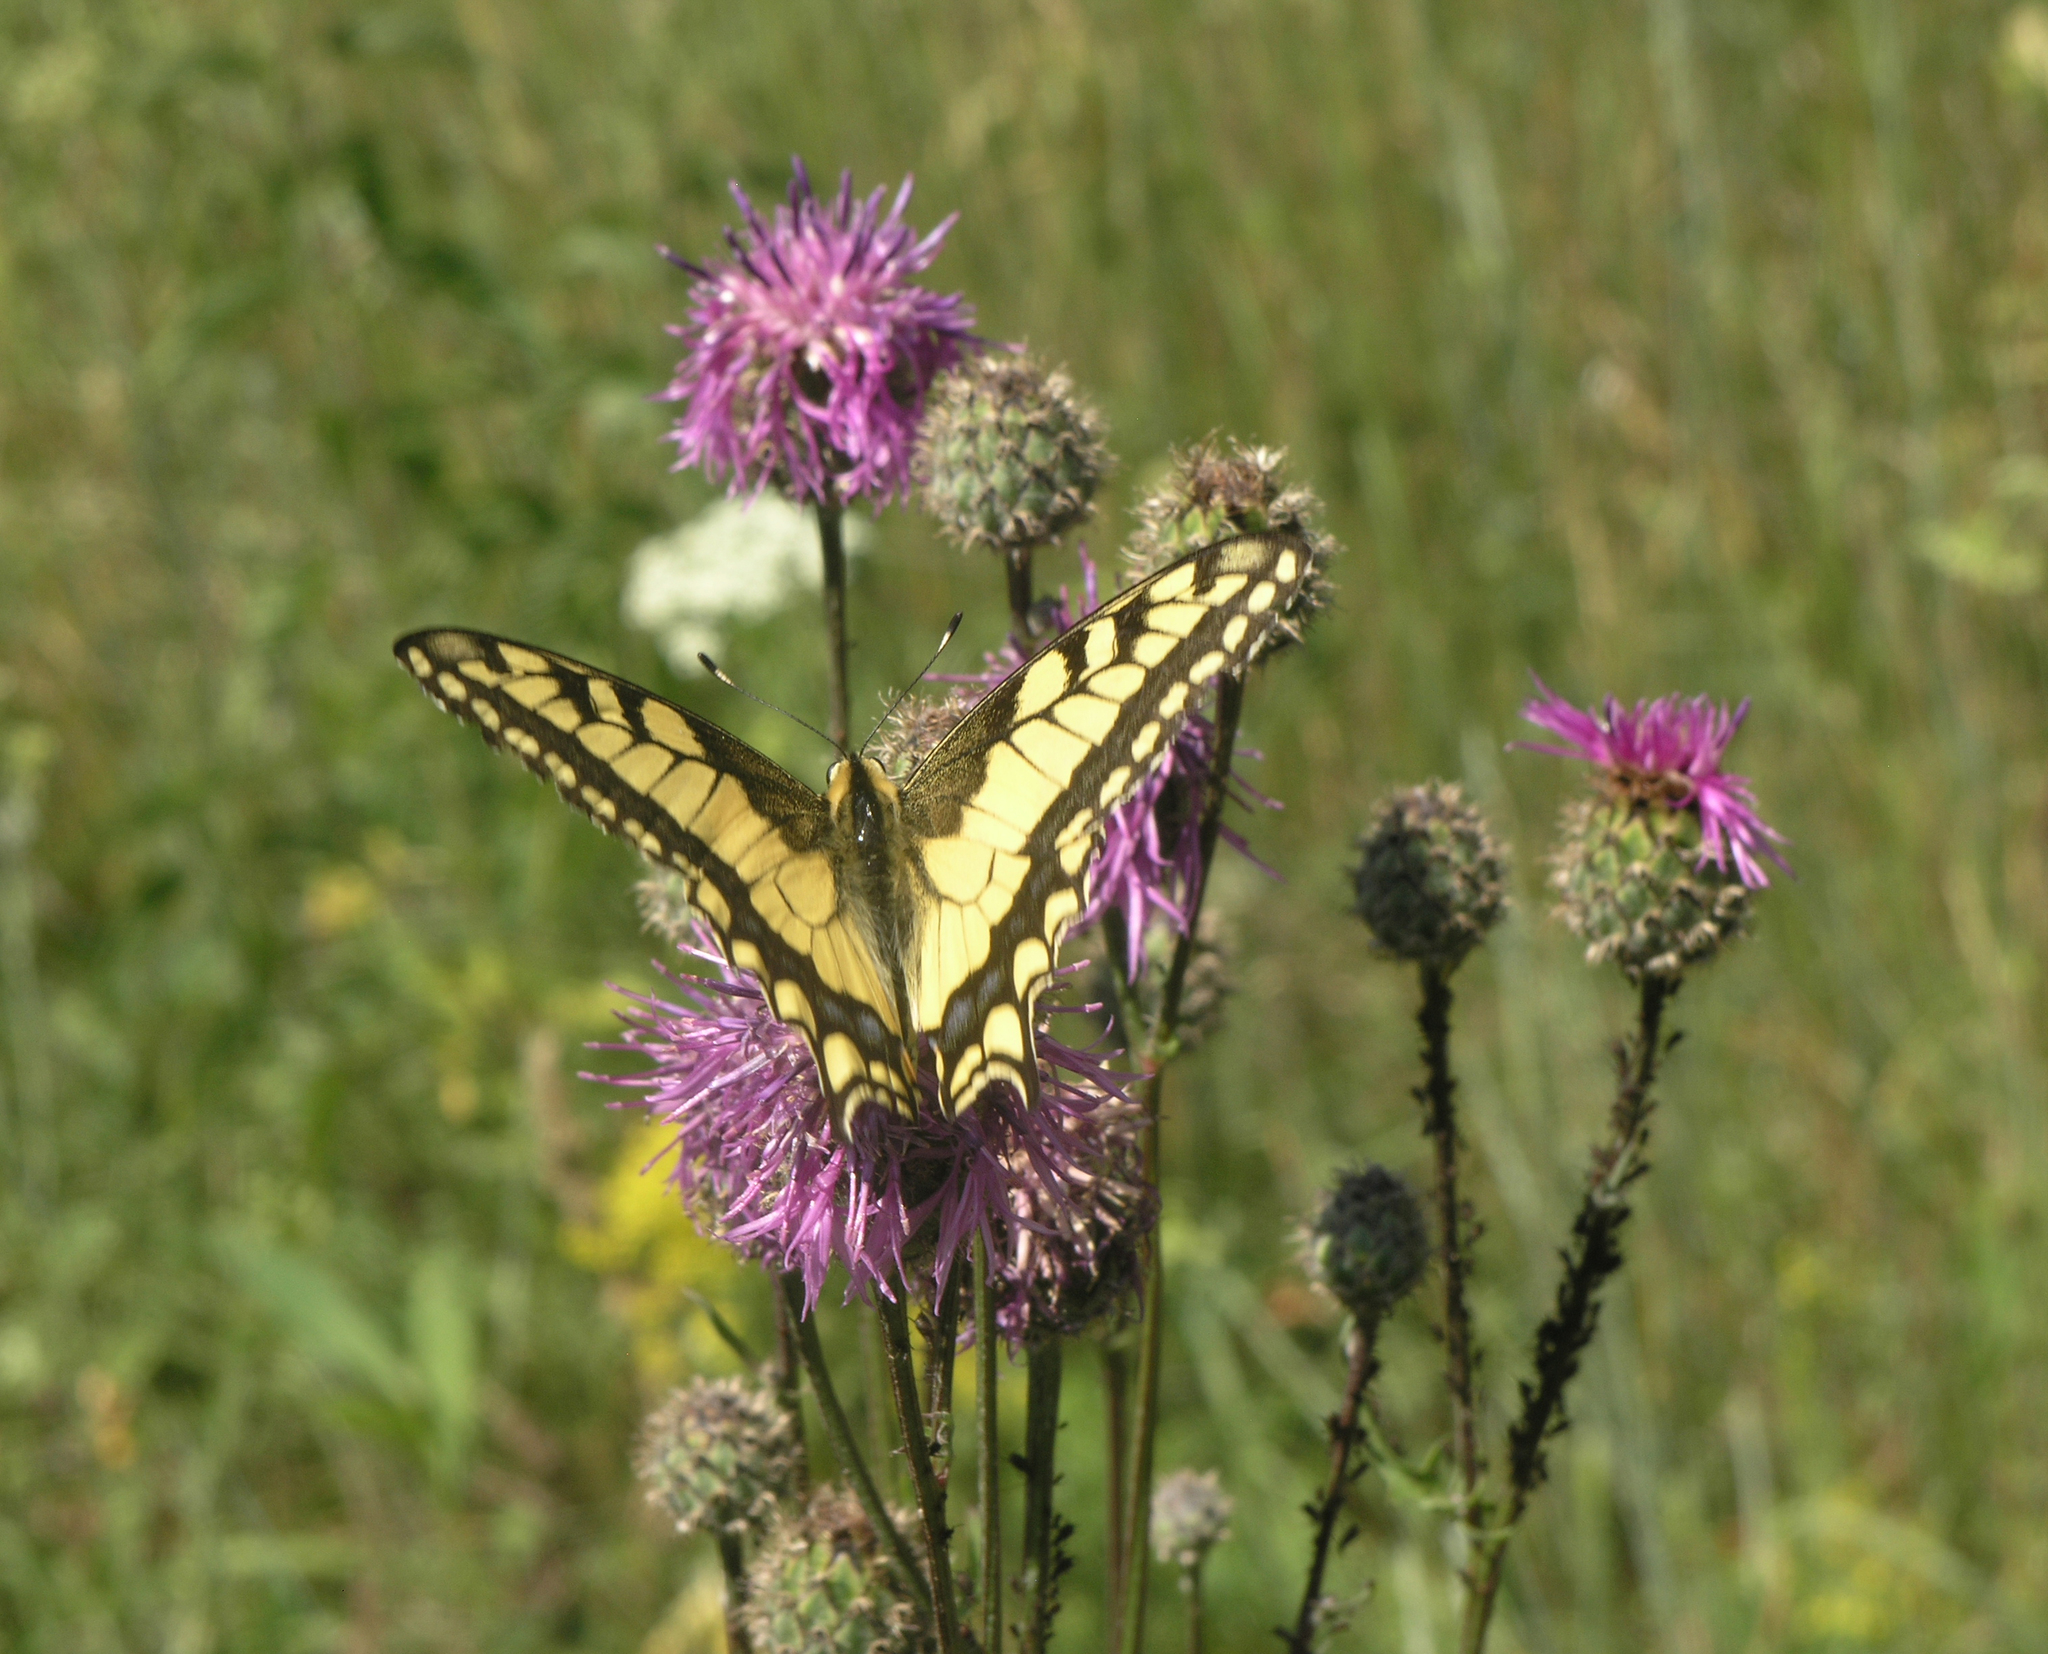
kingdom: Plantae
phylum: Tracheophyta
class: Magnoliopsida
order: Asterales
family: Asteraceae
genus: Centaurea
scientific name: Centaurea scabiosa
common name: Greater knapweed
